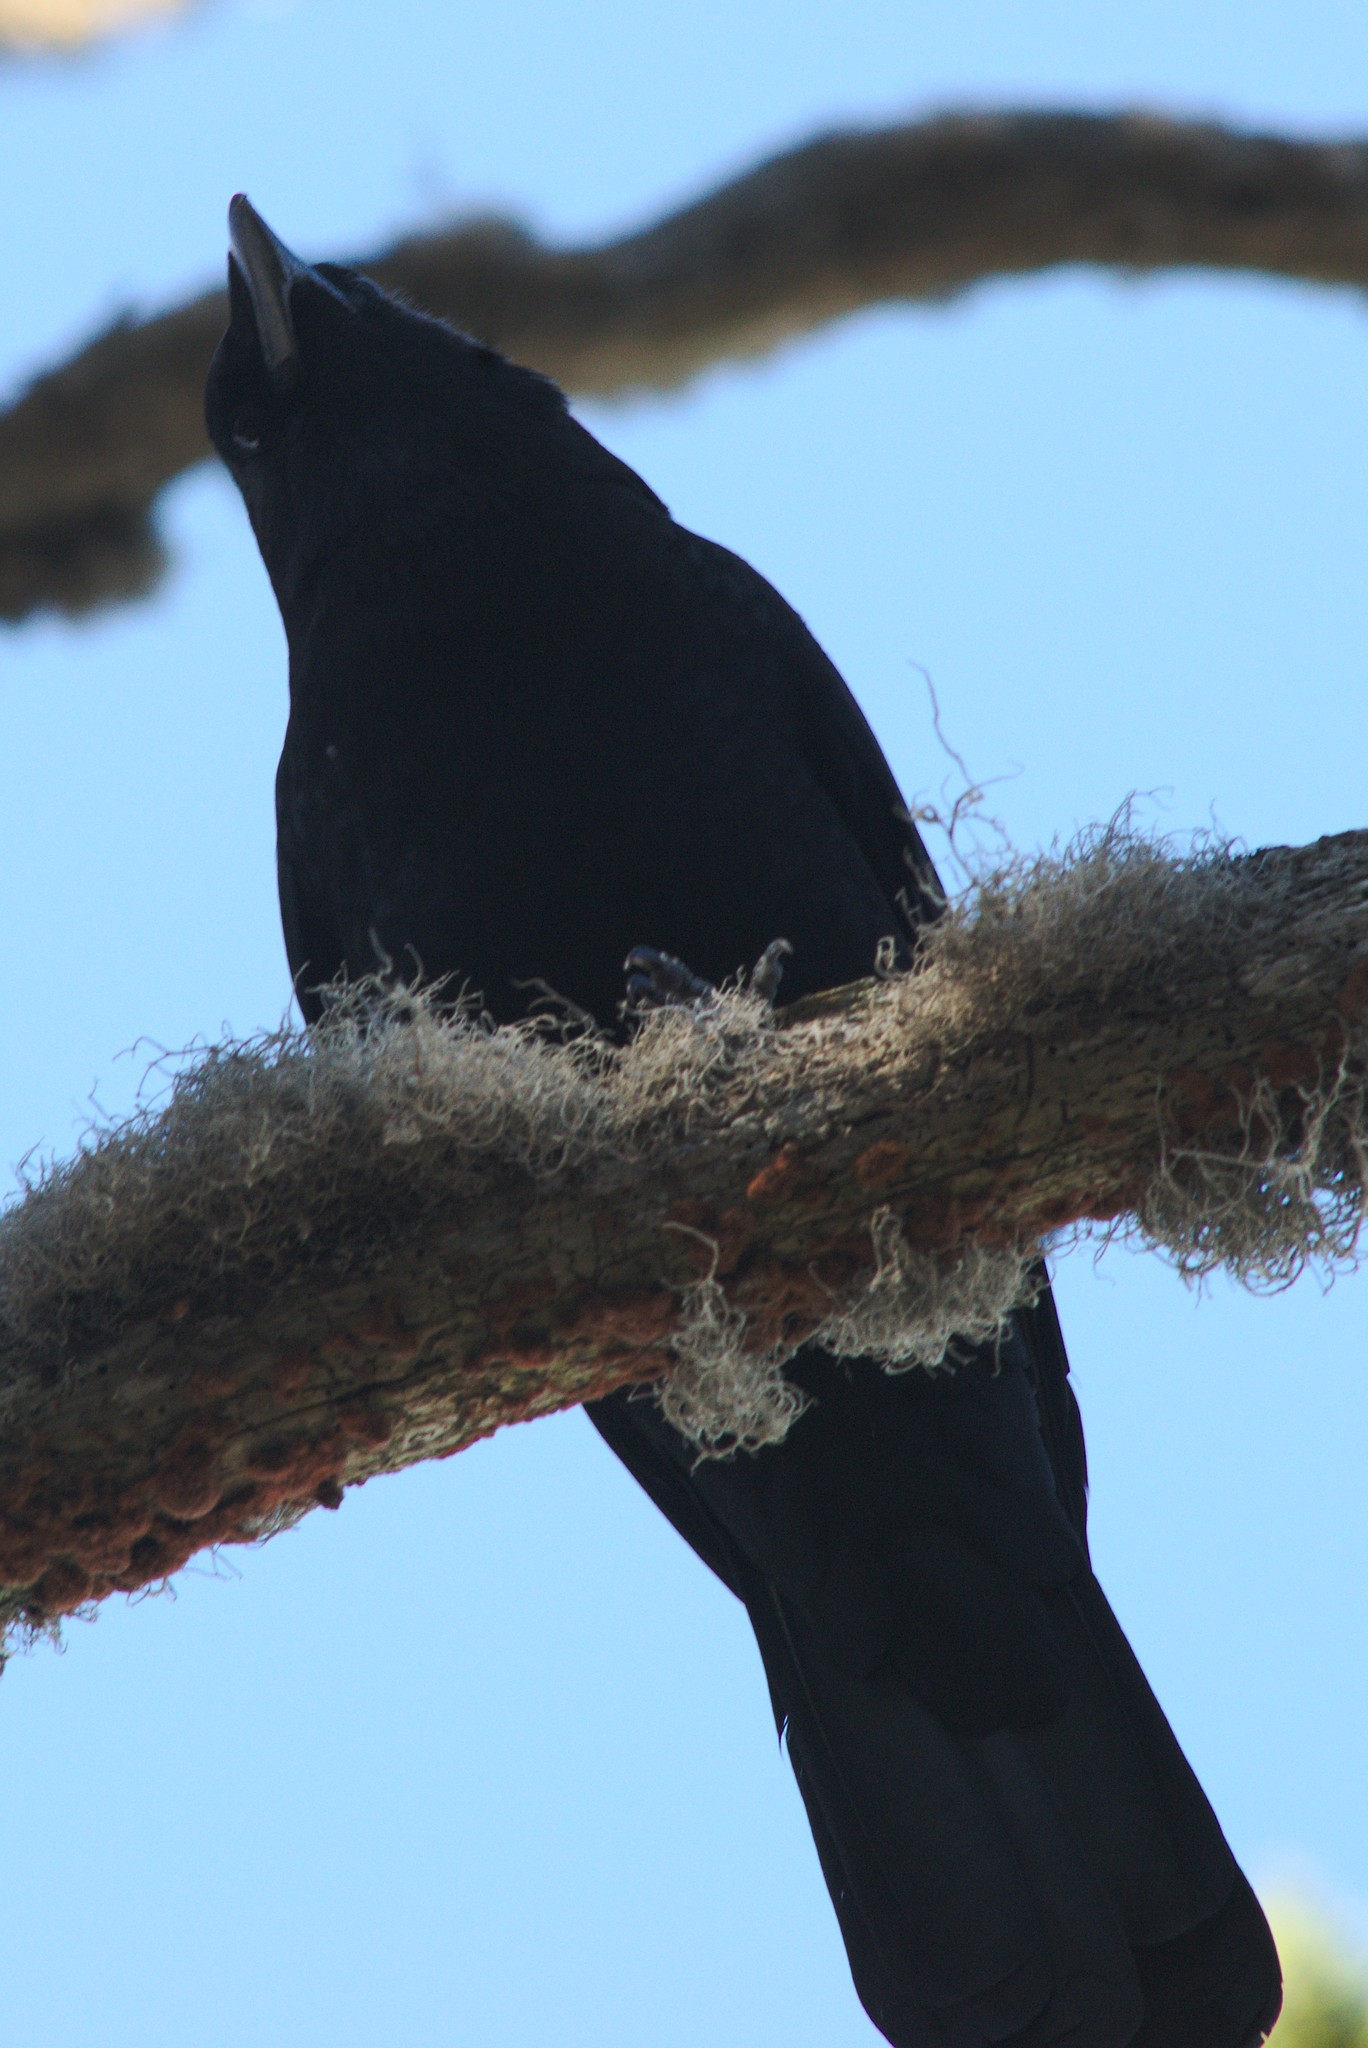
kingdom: Animalia
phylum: Chordata
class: Aves
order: Passeriformes
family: Corvidae
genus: Corvus
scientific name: Corvus brachyrhynchos
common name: American crow
